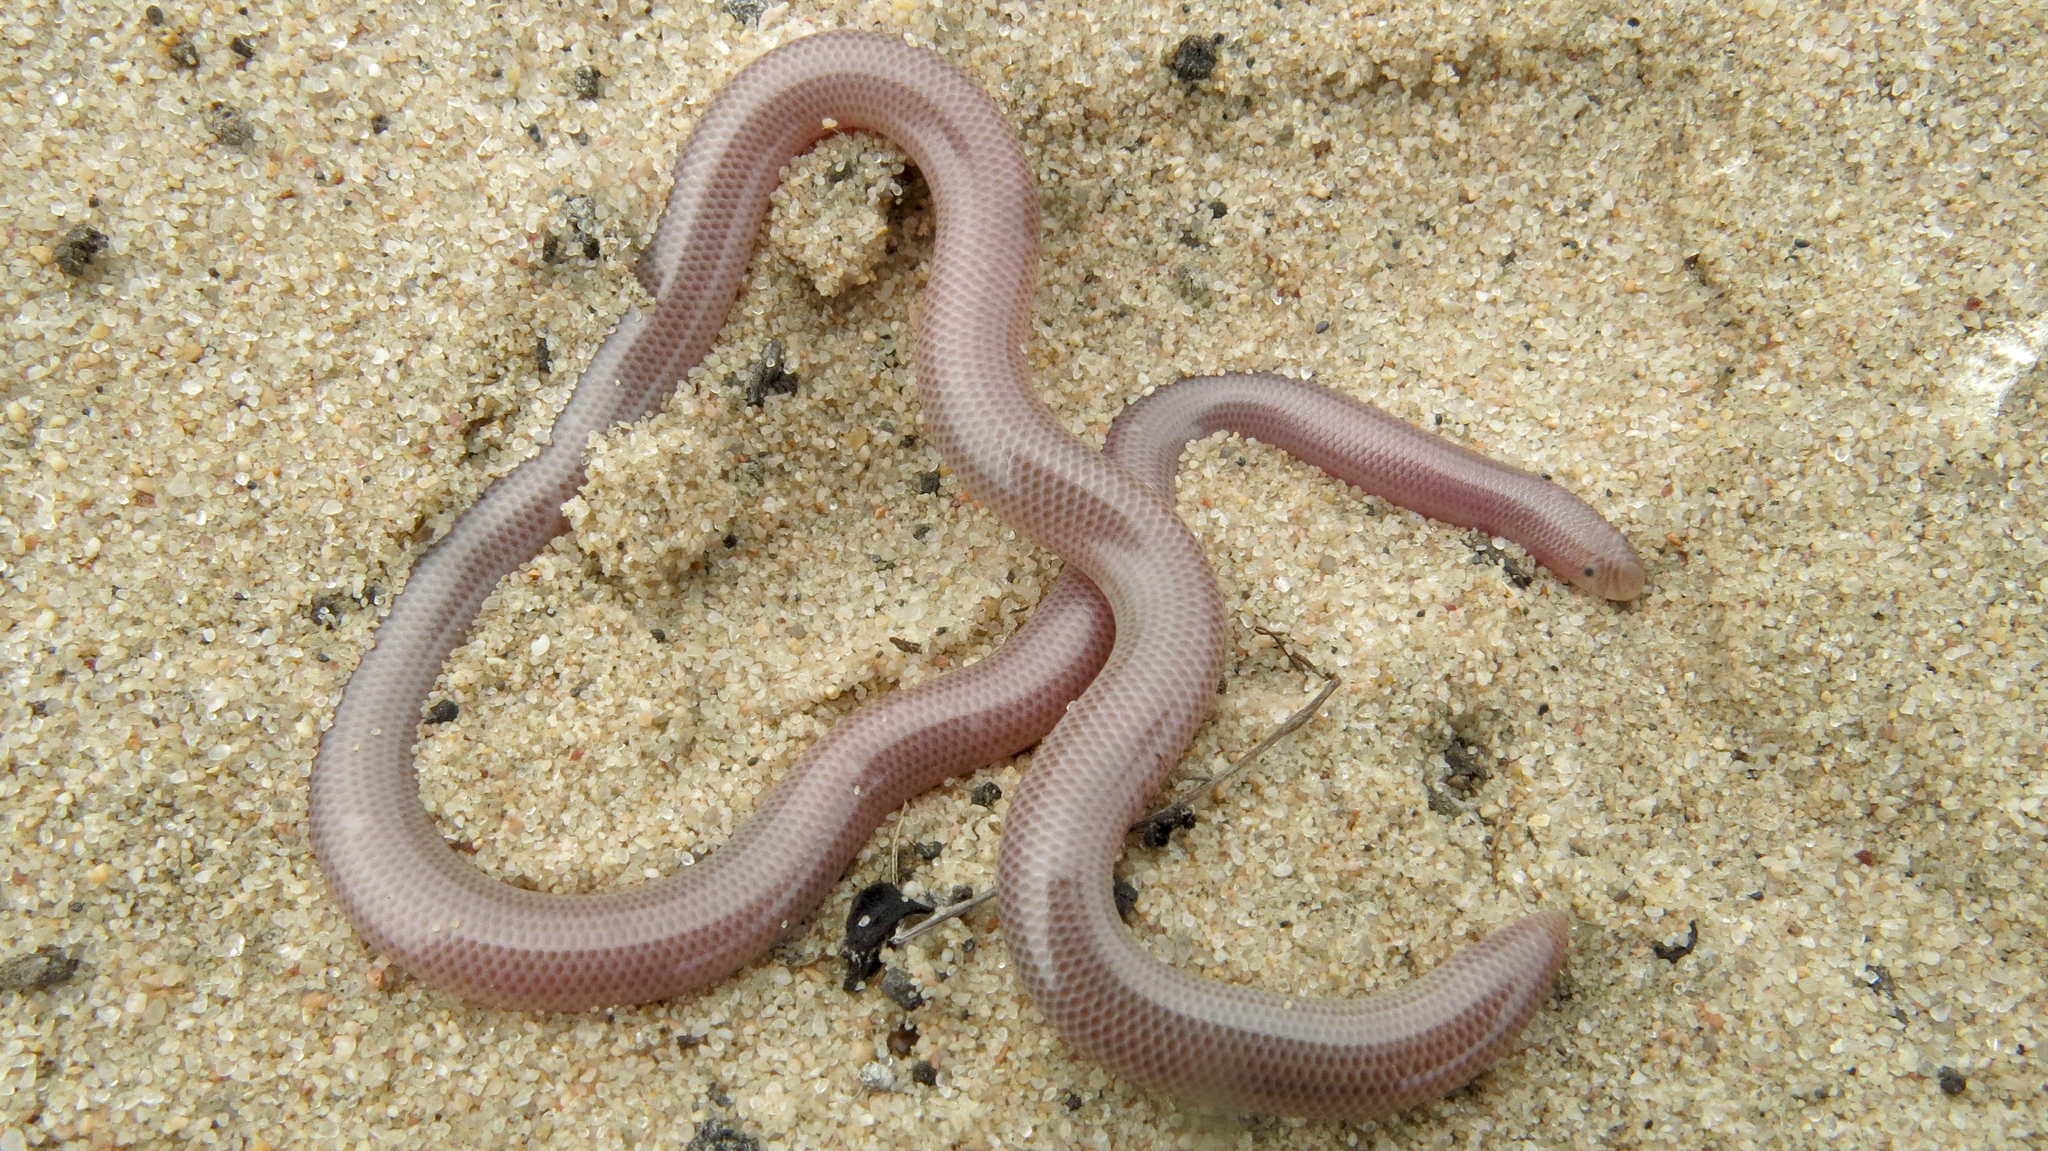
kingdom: Animalia
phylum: Chordata
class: Squamata
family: Typhlopidae
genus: Rhinotyphlops
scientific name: Rhinotyphlops lalandei
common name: Delalande's beaked blind snake
